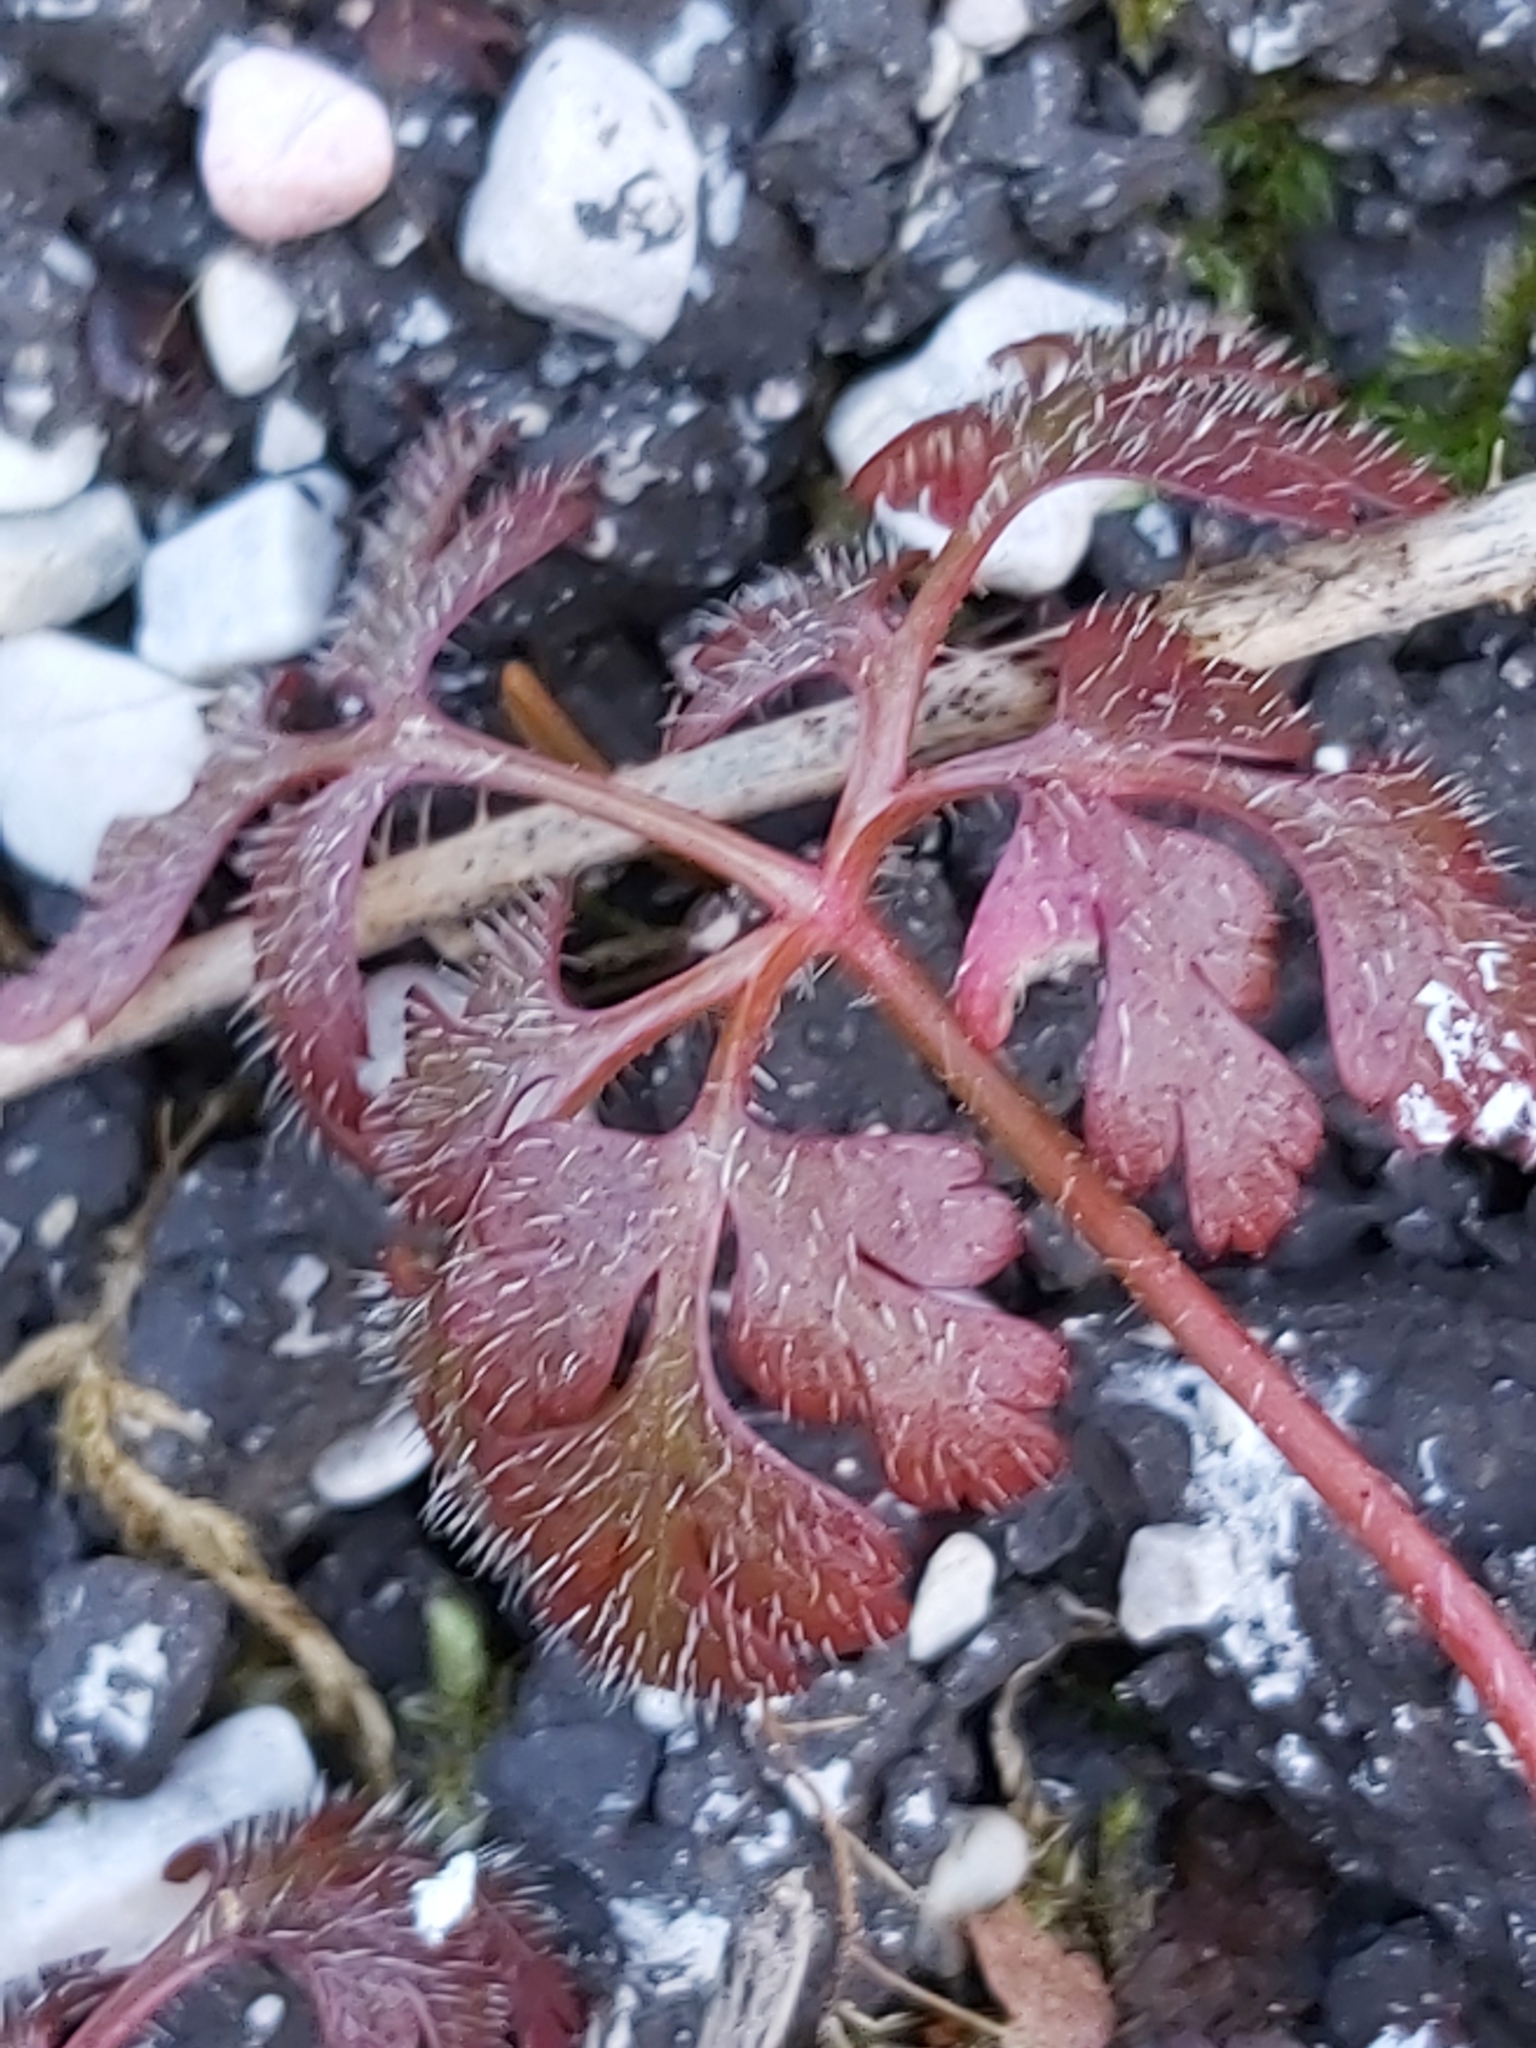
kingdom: Plantae
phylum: Tracheophyta
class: Magnoliopsida
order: Geraniales
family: Geraniaceae
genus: Geranium
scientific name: Geranium robertianum
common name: Herb-robert
